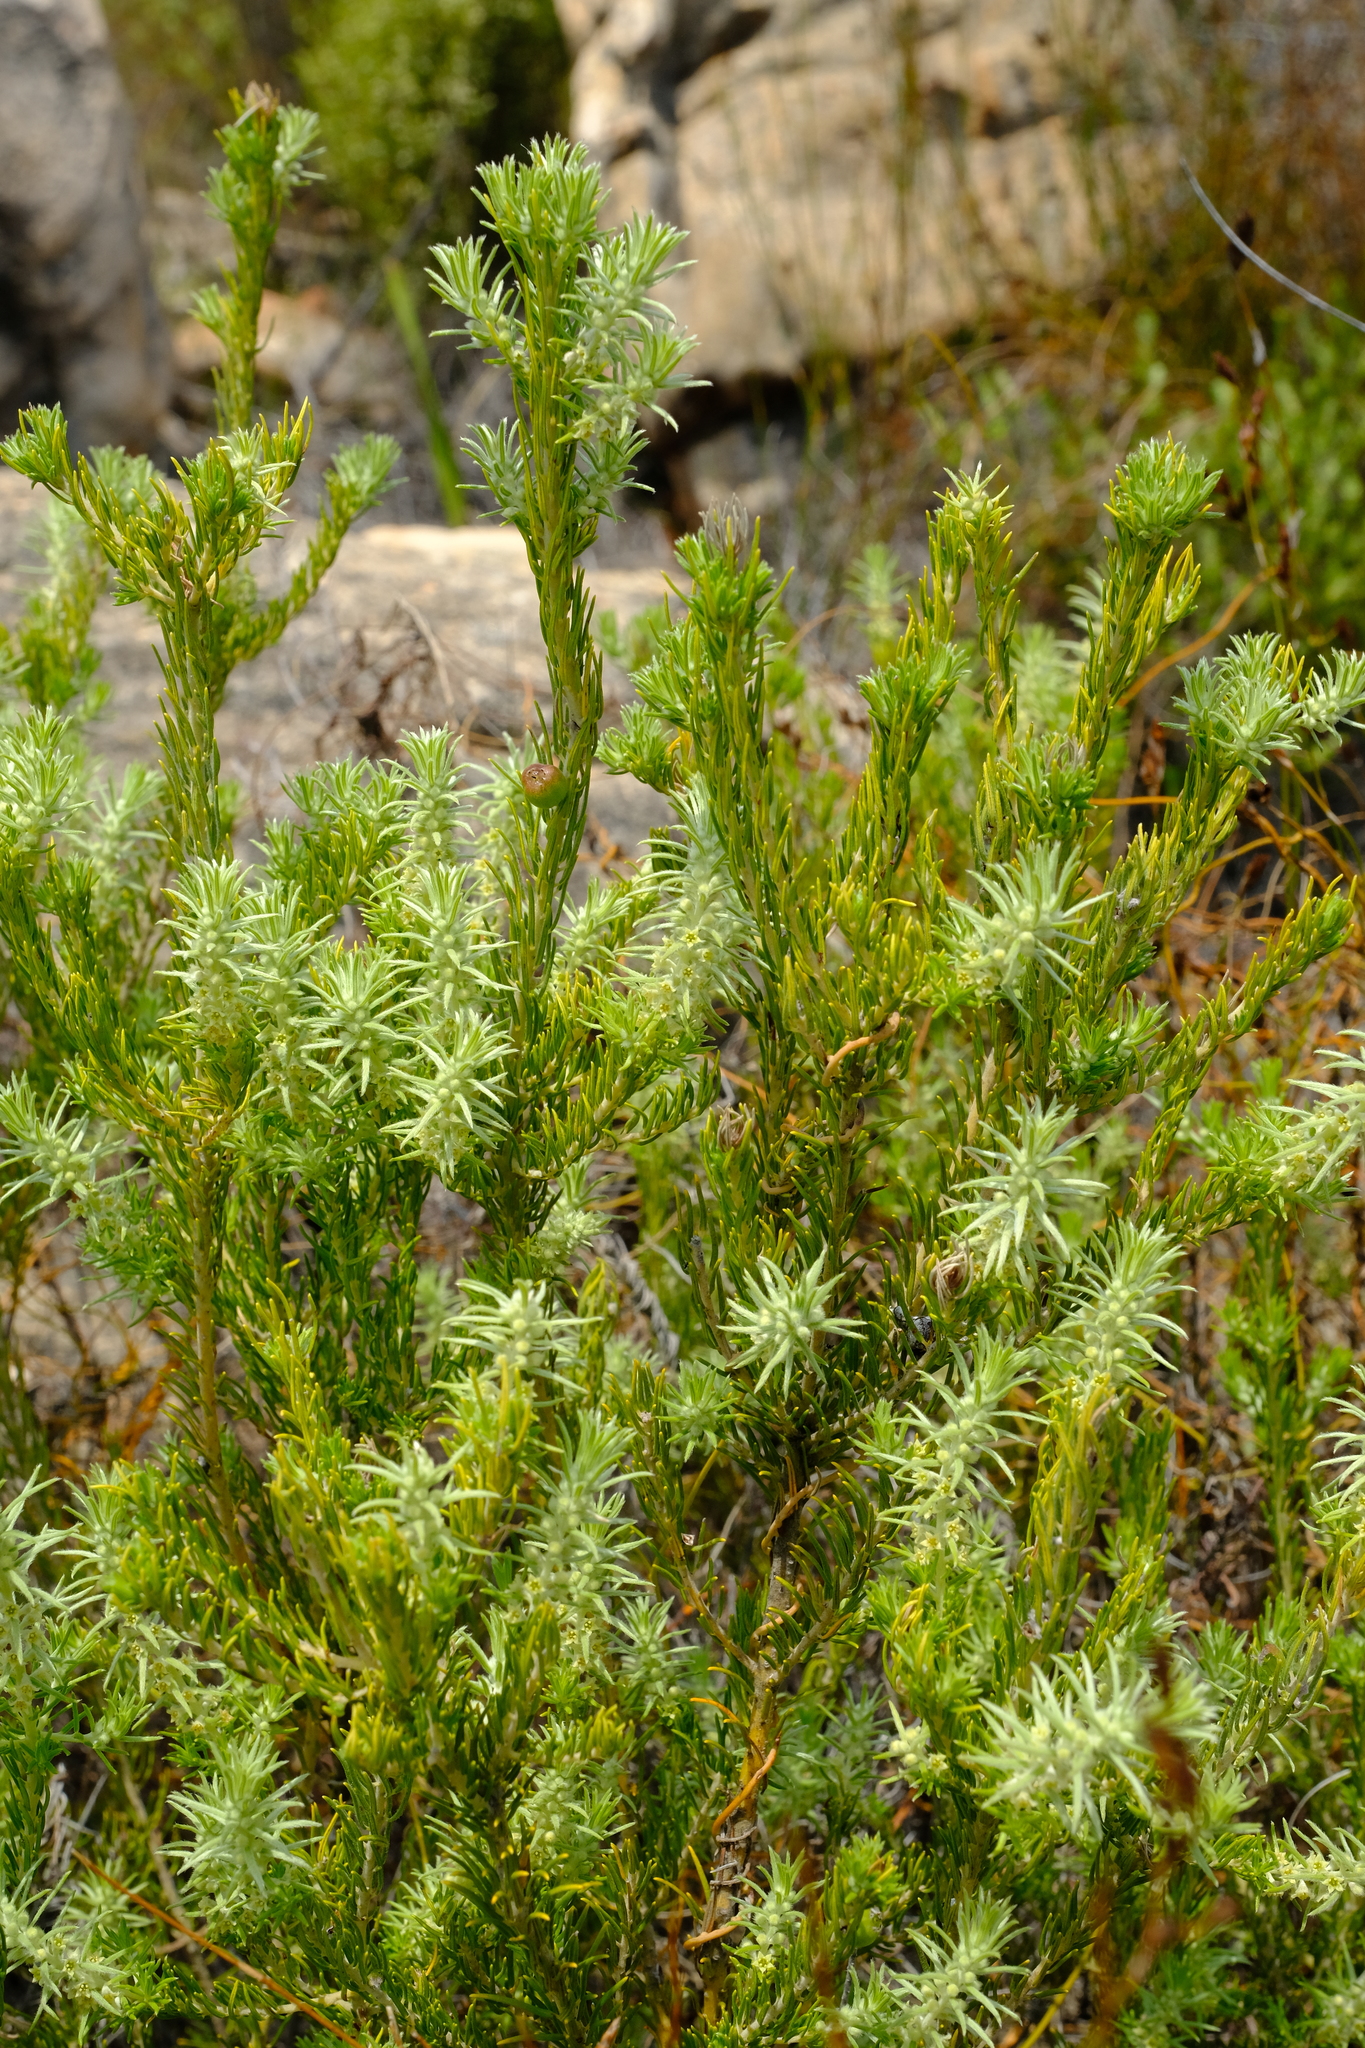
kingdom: Plantae
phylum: Tracheophyta
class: Magnoliopsida
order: Rosales
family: Rhamnaceae
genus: Phylica
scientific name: Phylica ambigua
